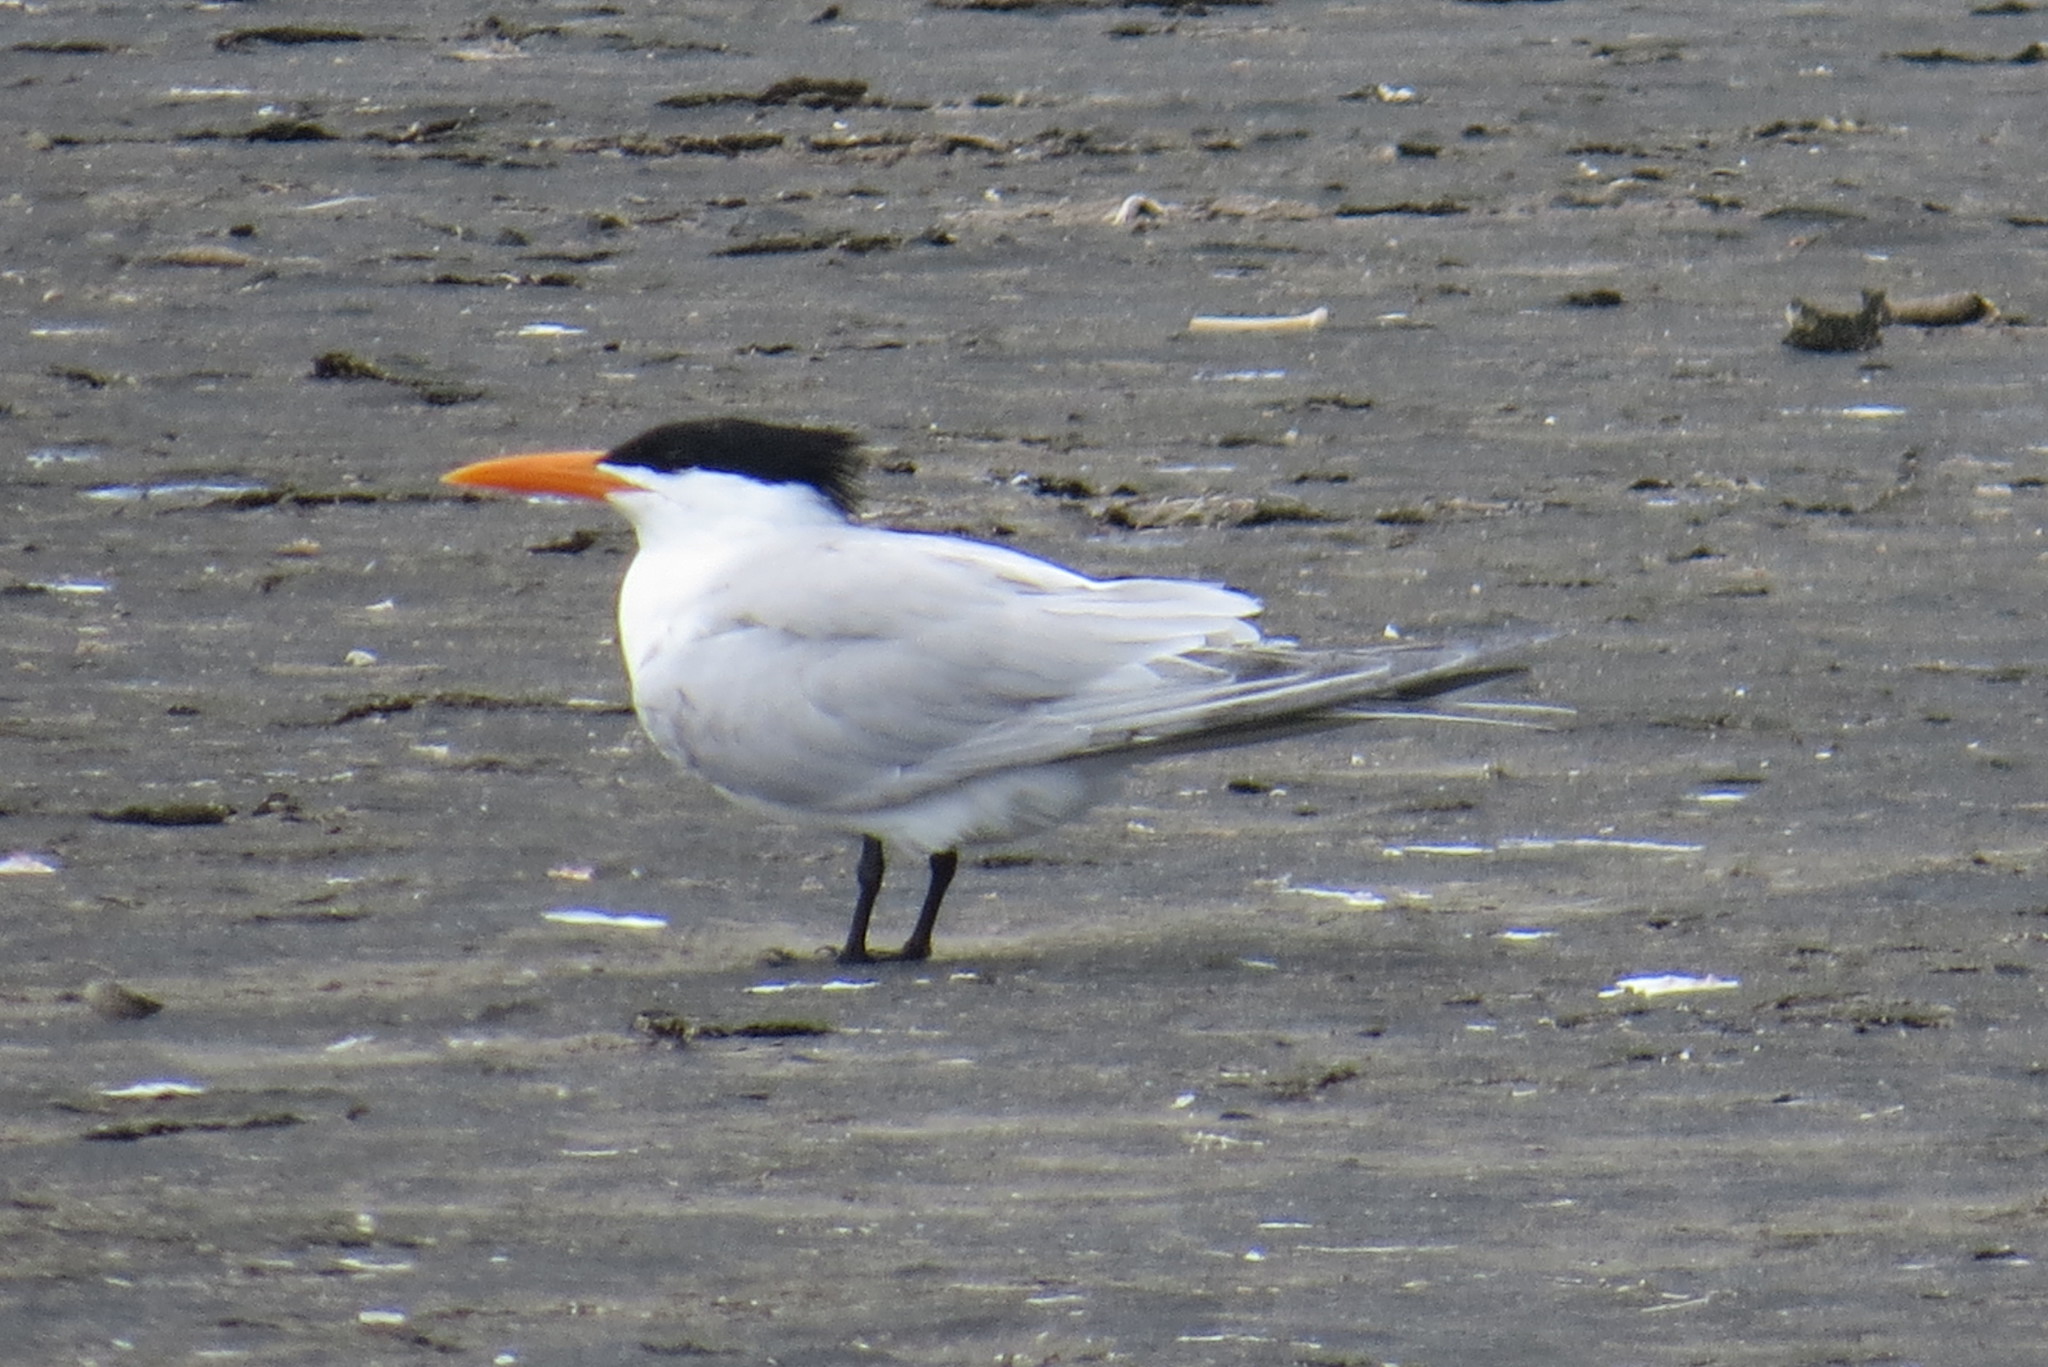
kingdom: Animalia
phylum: Chordata
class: Aves
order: Charadriiformes
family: Laridae
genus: Thalasseus
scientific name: Thalasseus maximus
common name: Royal tern
